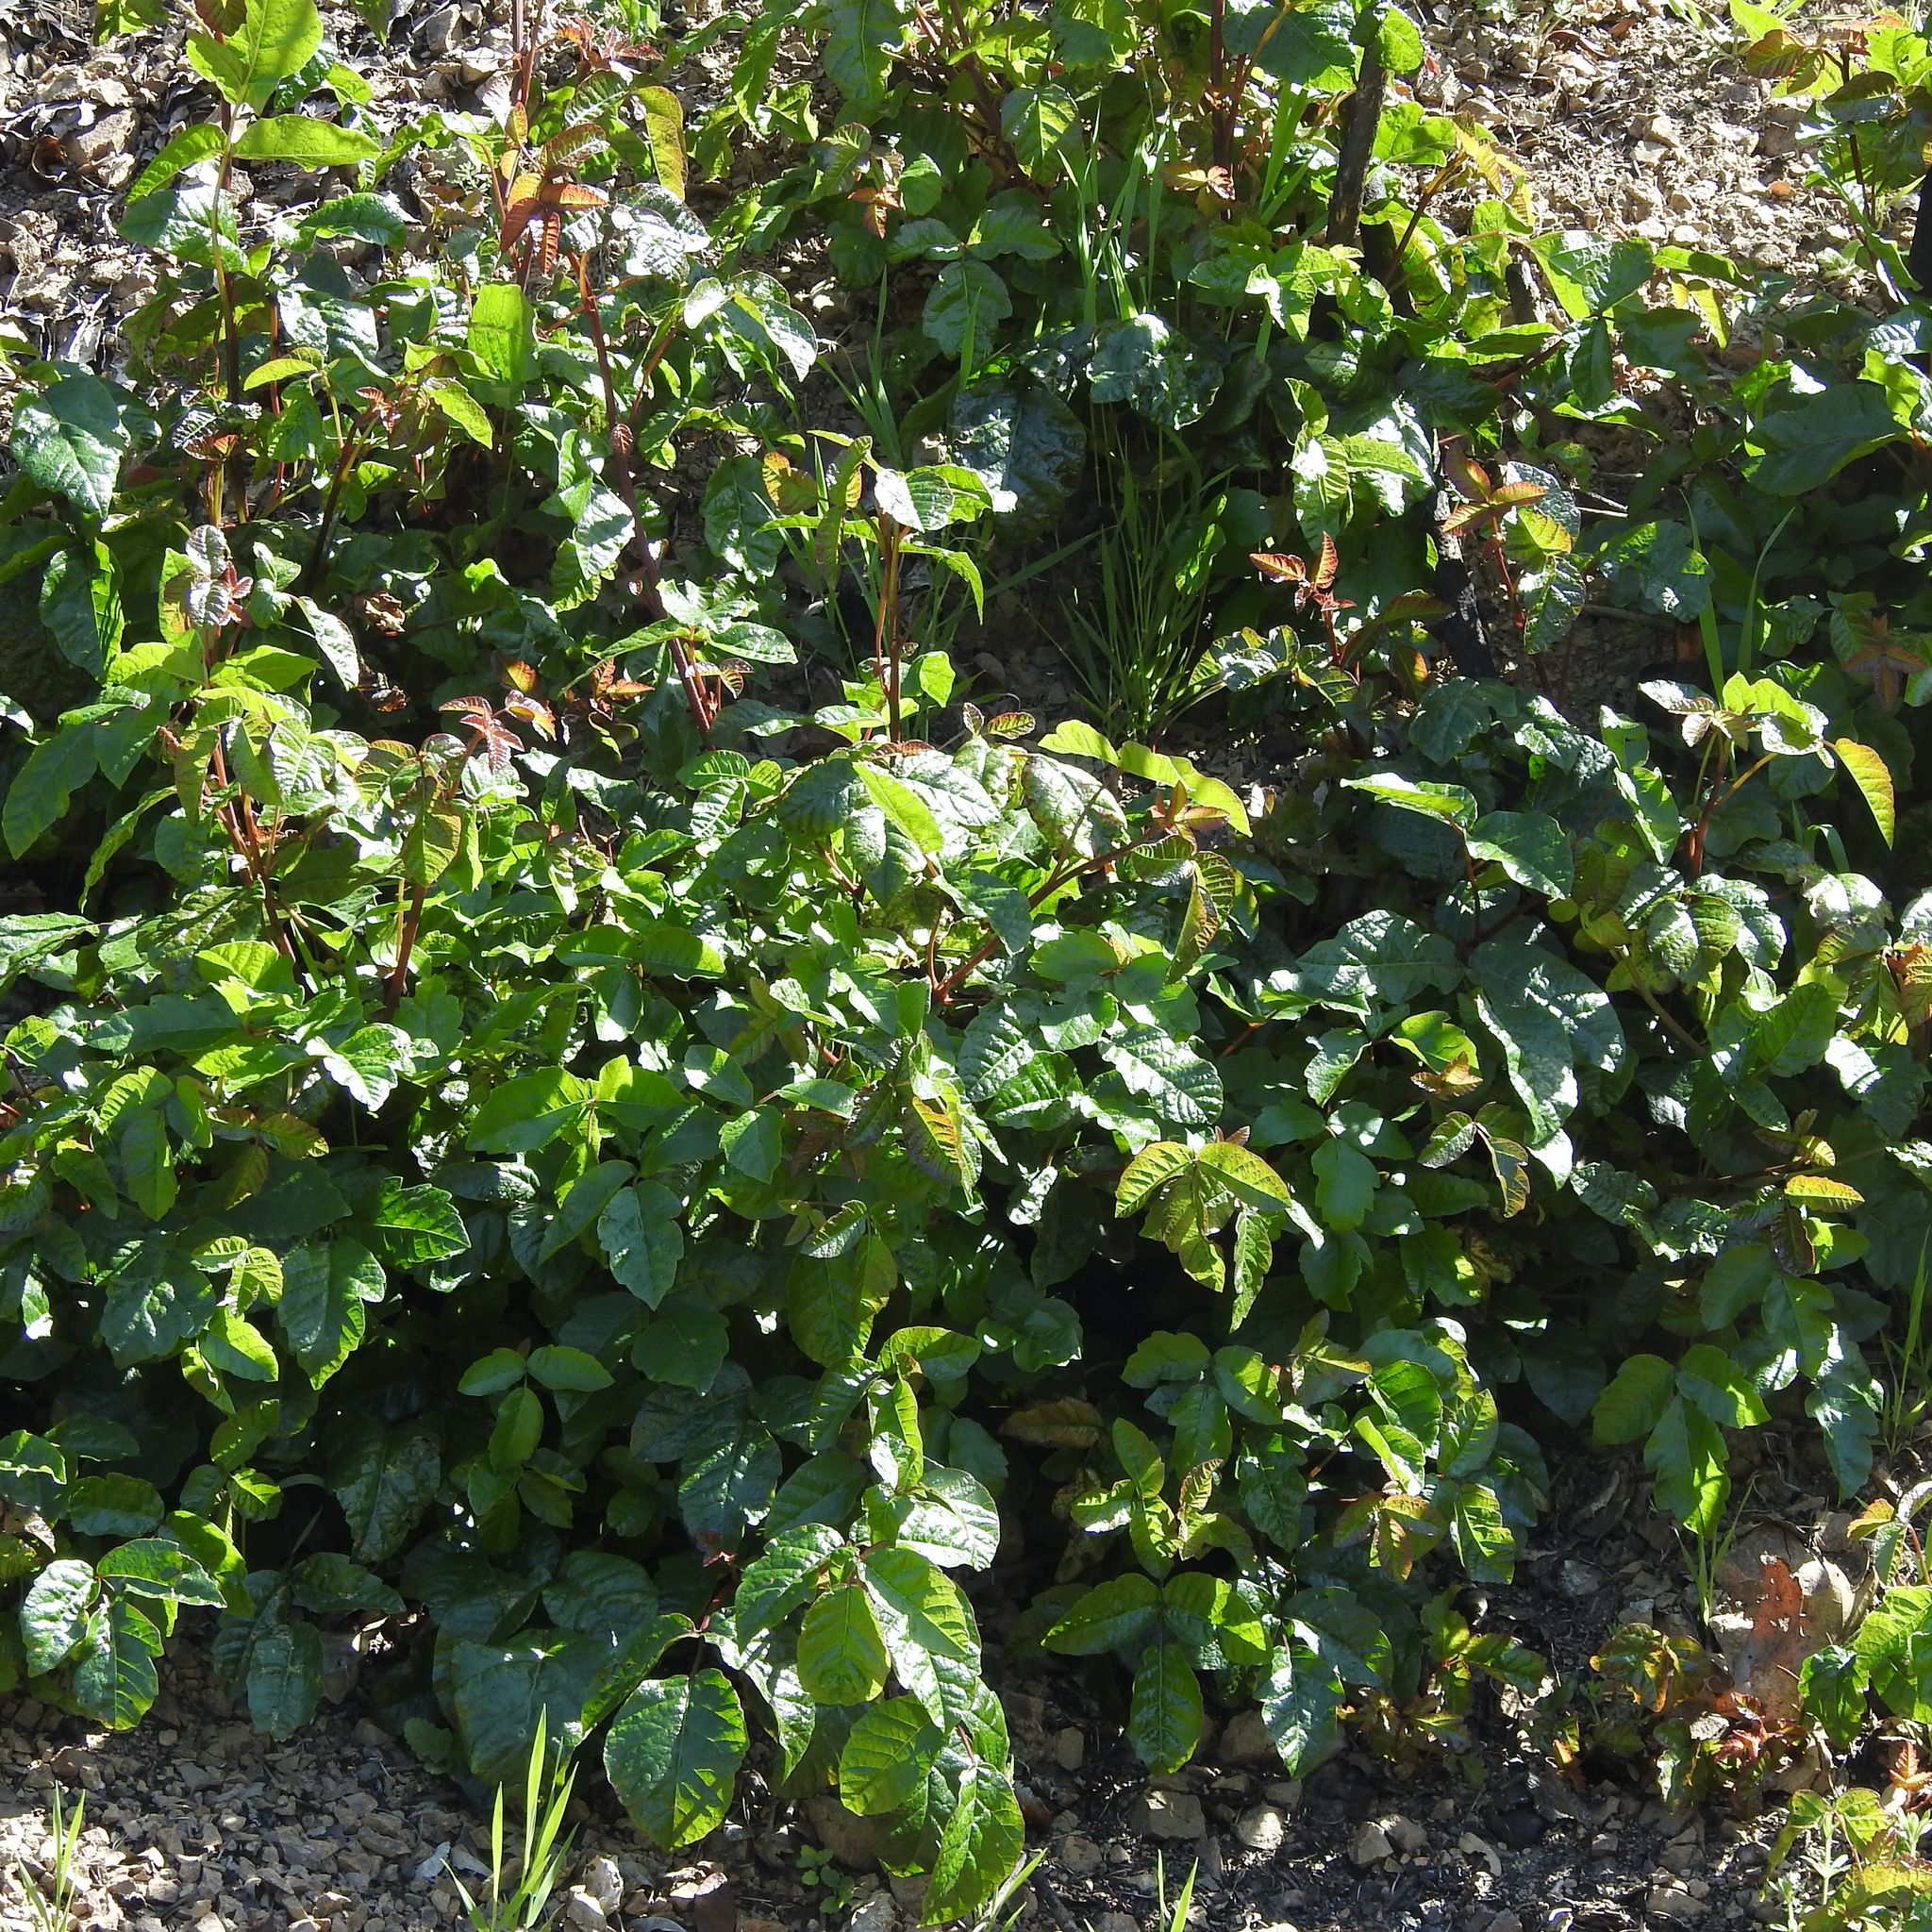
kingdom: Plantae
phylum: Tracheophyta
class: Magnoliopsida
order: Sapindales
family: Anacardiaceae
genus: Toxicodendron
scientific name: Toxicodendron diversilobum
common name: Pacific poison-oak
